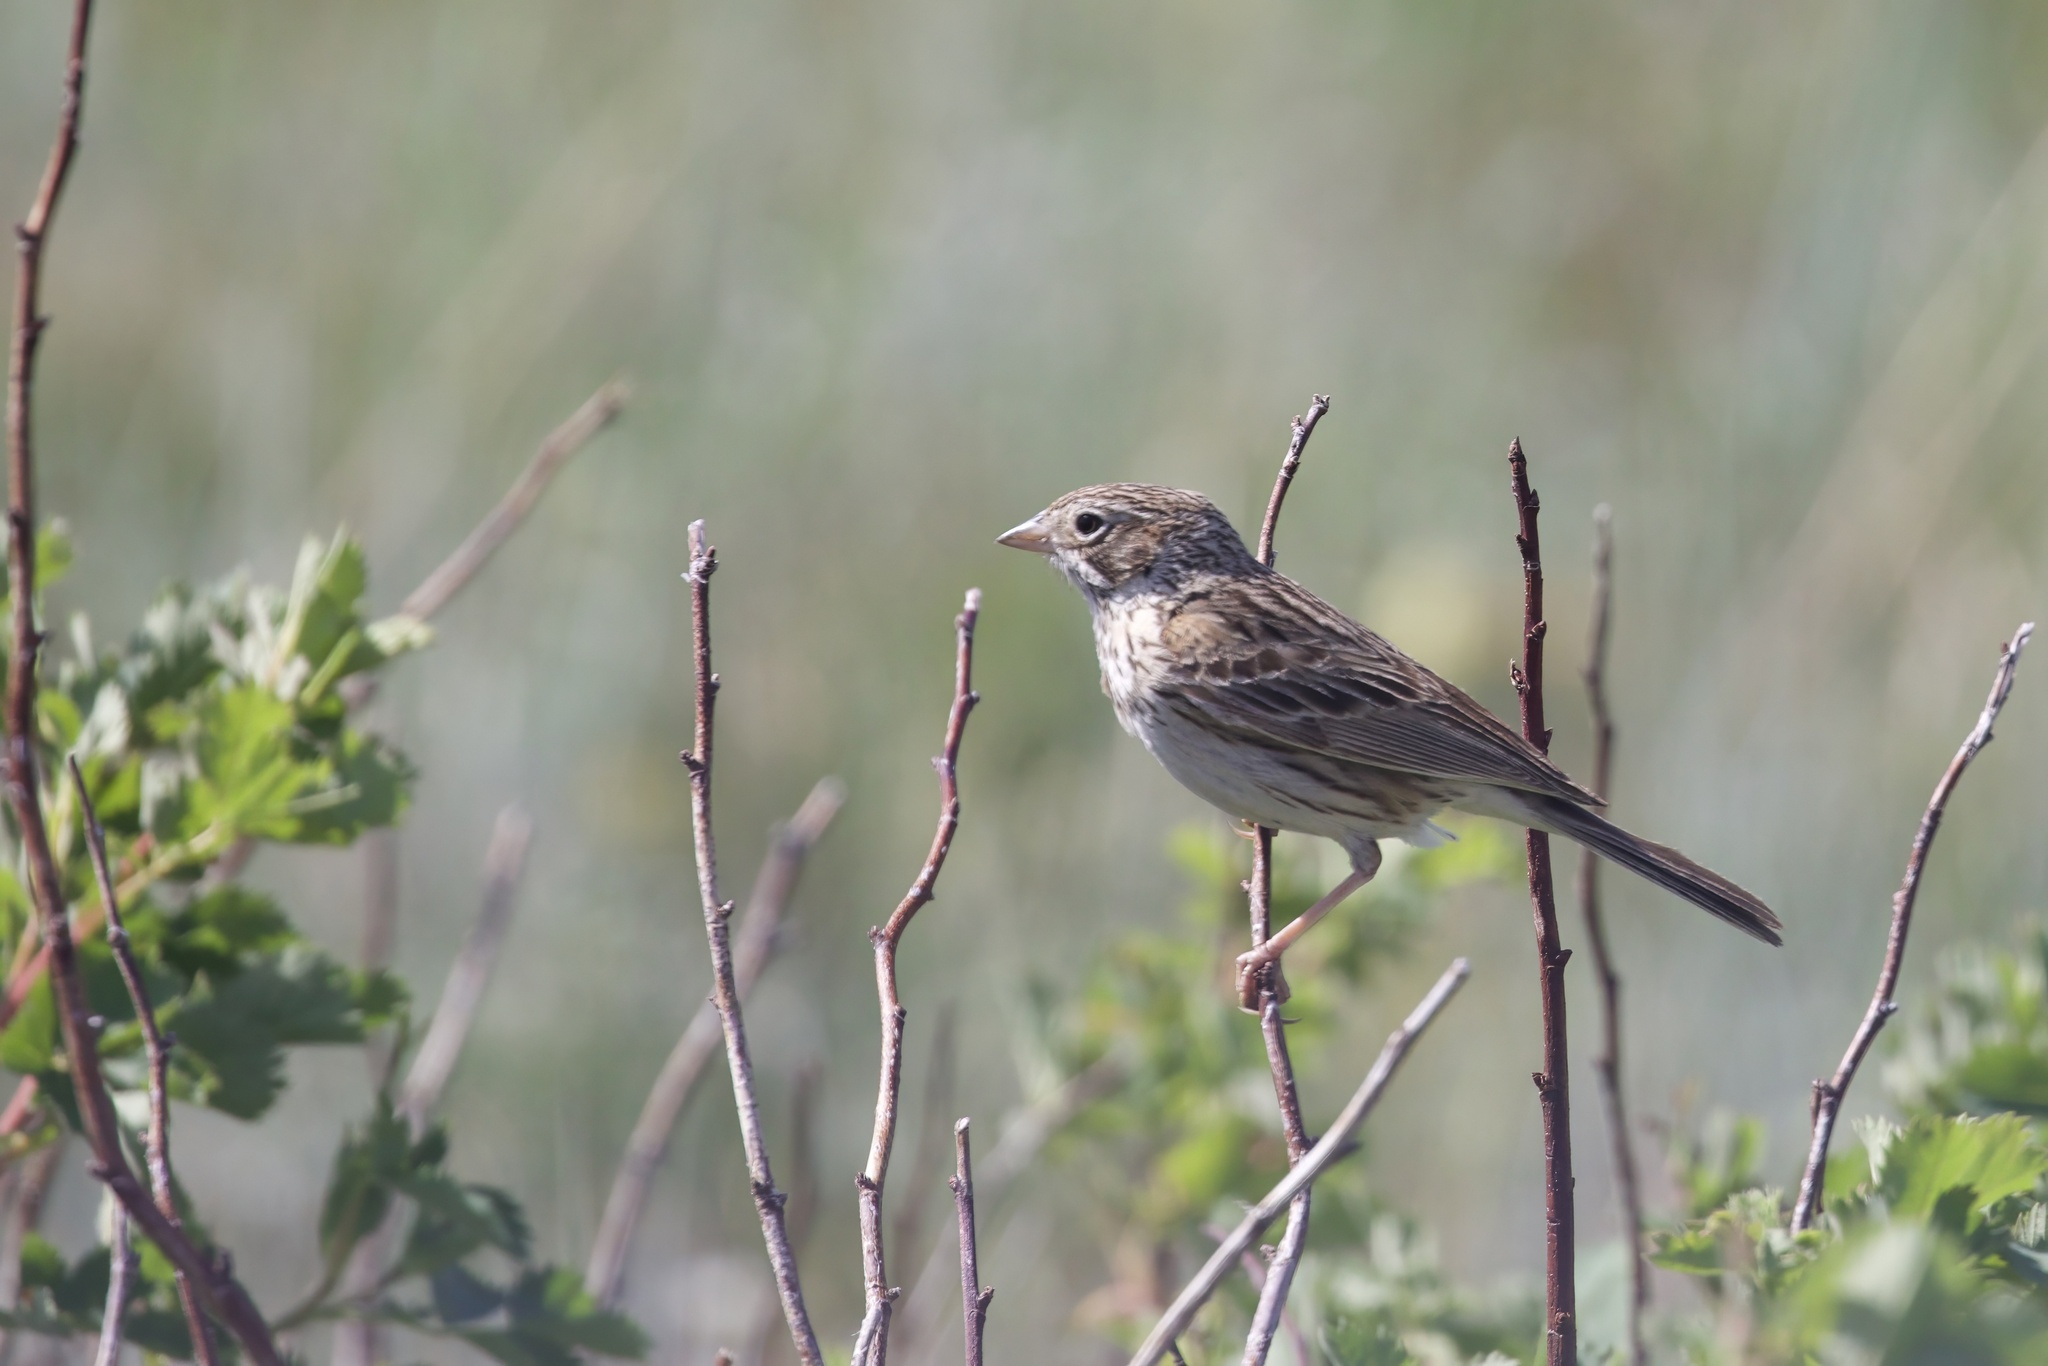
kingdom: Animalia
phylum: Chordata
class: Aves
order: Passeriformes
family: Passerellidae
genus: Pooecetes
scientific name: Pooecetes gramineus
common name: Vesper sparrow
